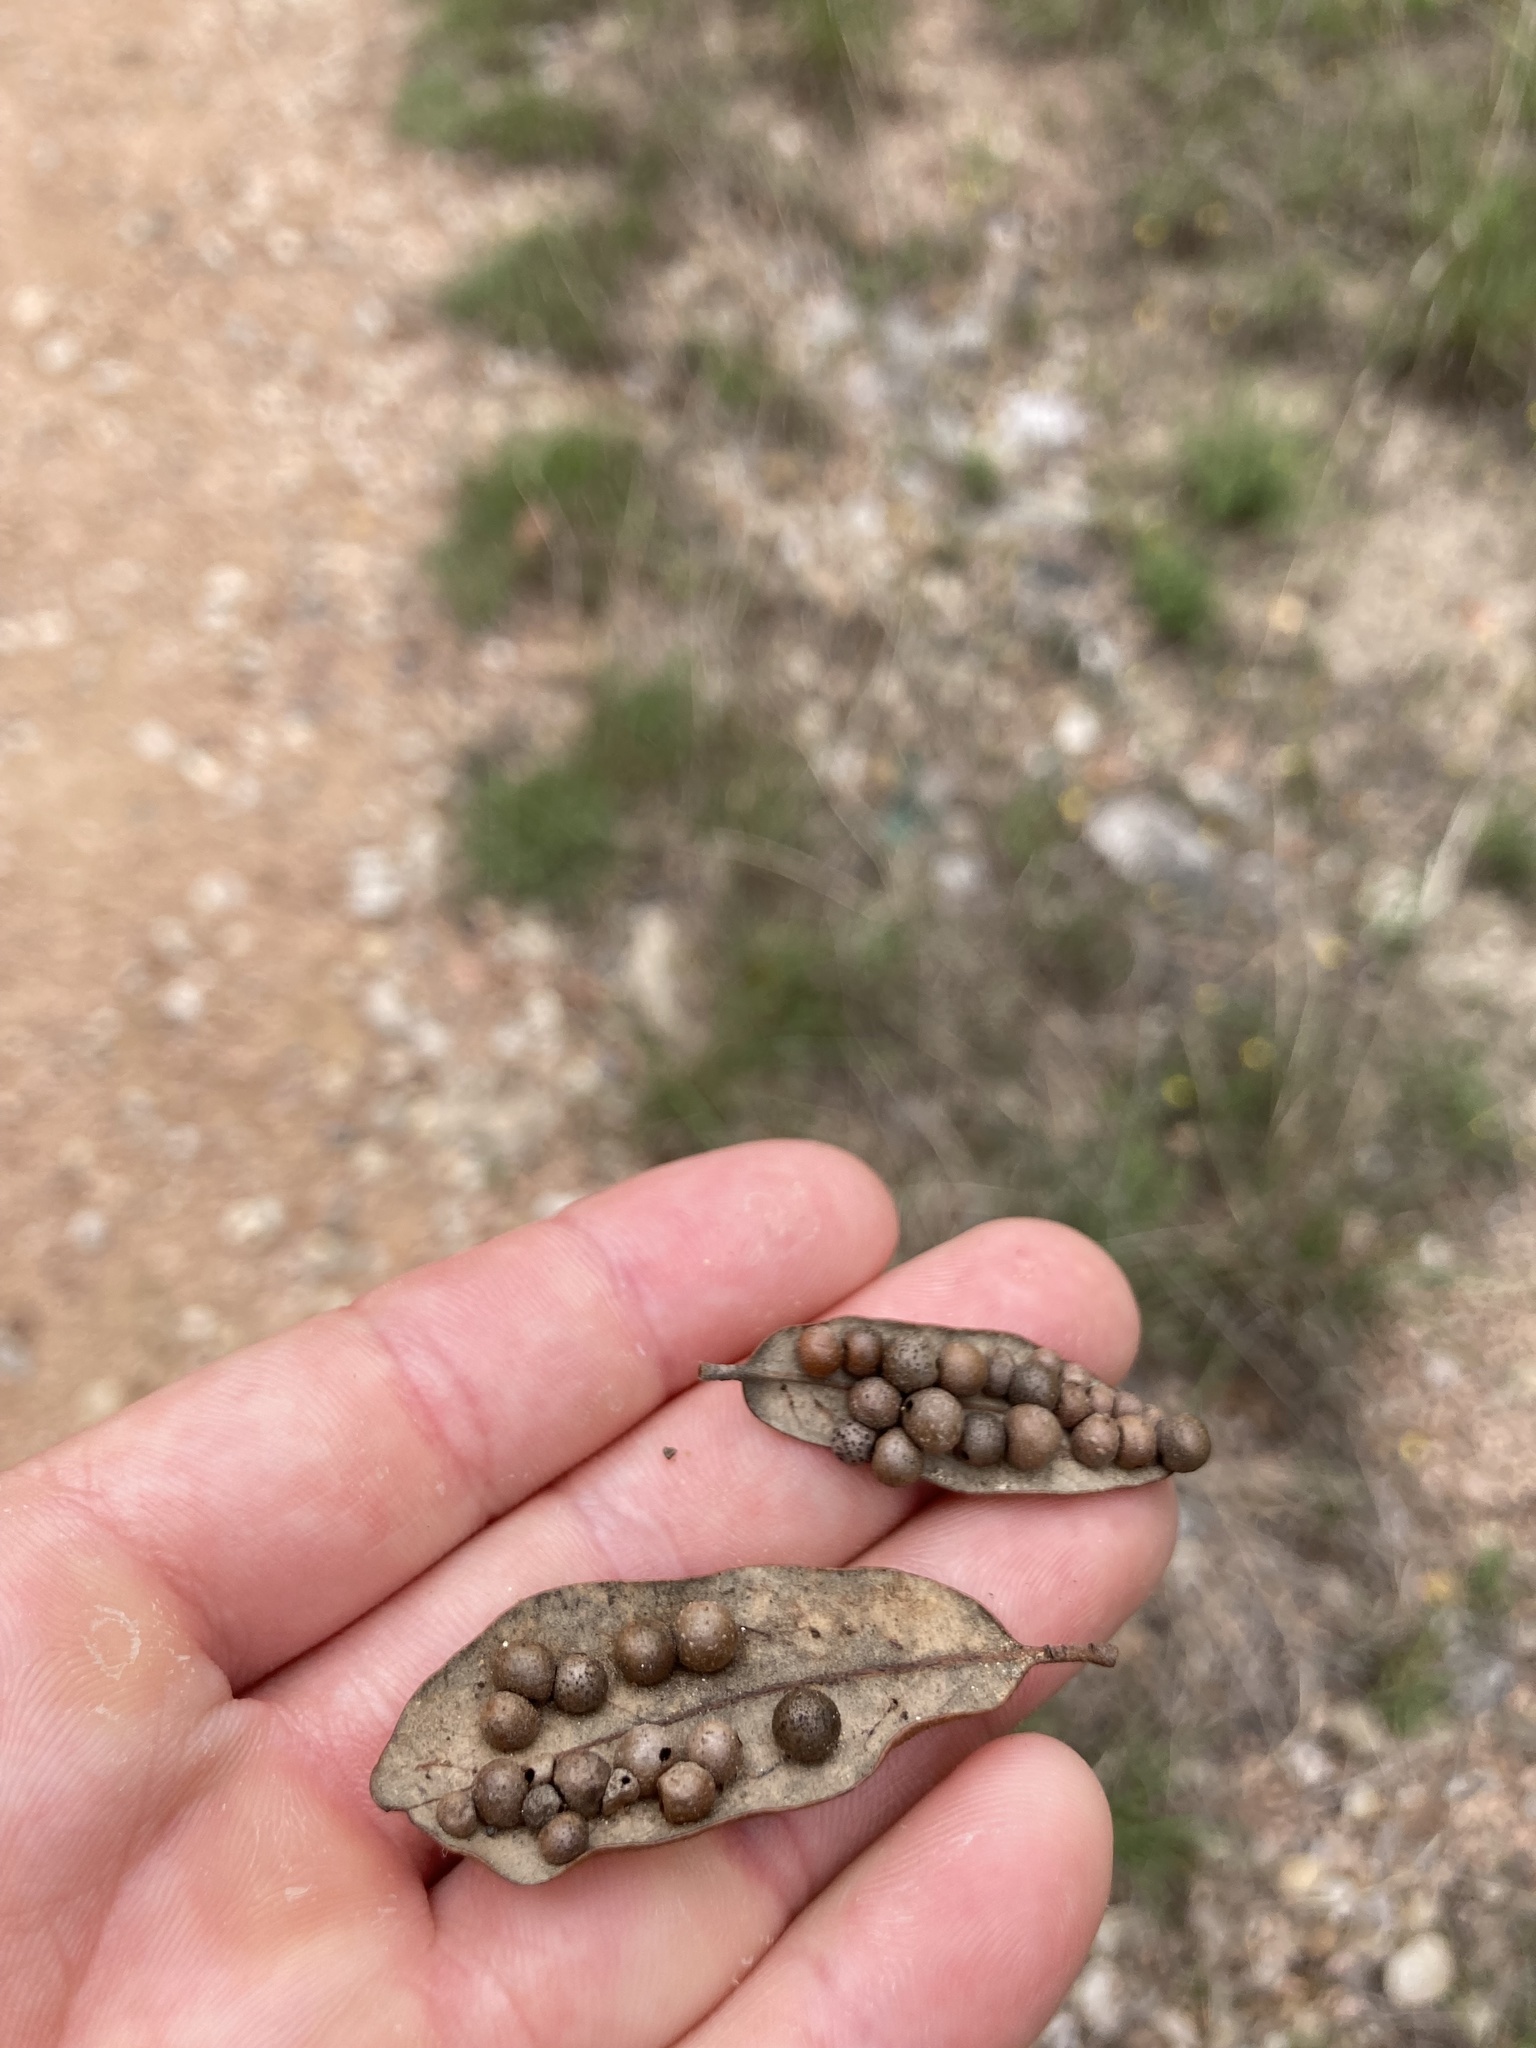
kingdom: Animalia
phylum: Arthropoda
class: Insecta
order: Hymenoptera
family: Cynipidae
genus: Belonocnema
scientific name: Belonocnema kinseyi
